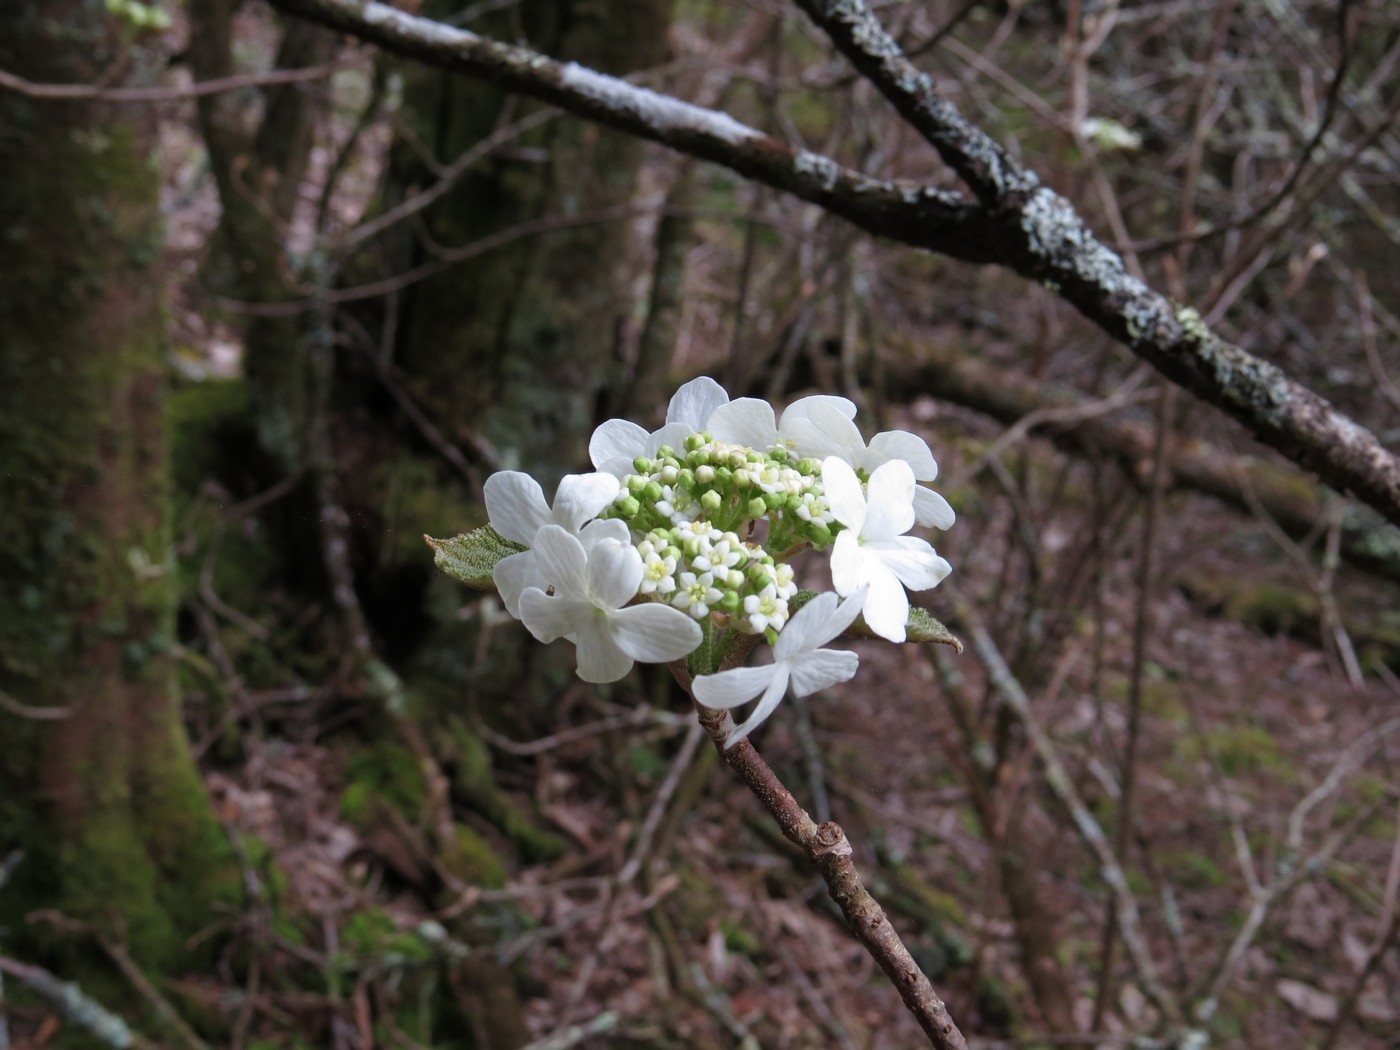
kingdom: Plantae
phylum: Tracheophyta
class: Magnoliopsida
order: Dipsacales
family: Viburnaceae
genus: Viburnum
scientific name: Viburnum lantanoides
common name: Hobblebush
